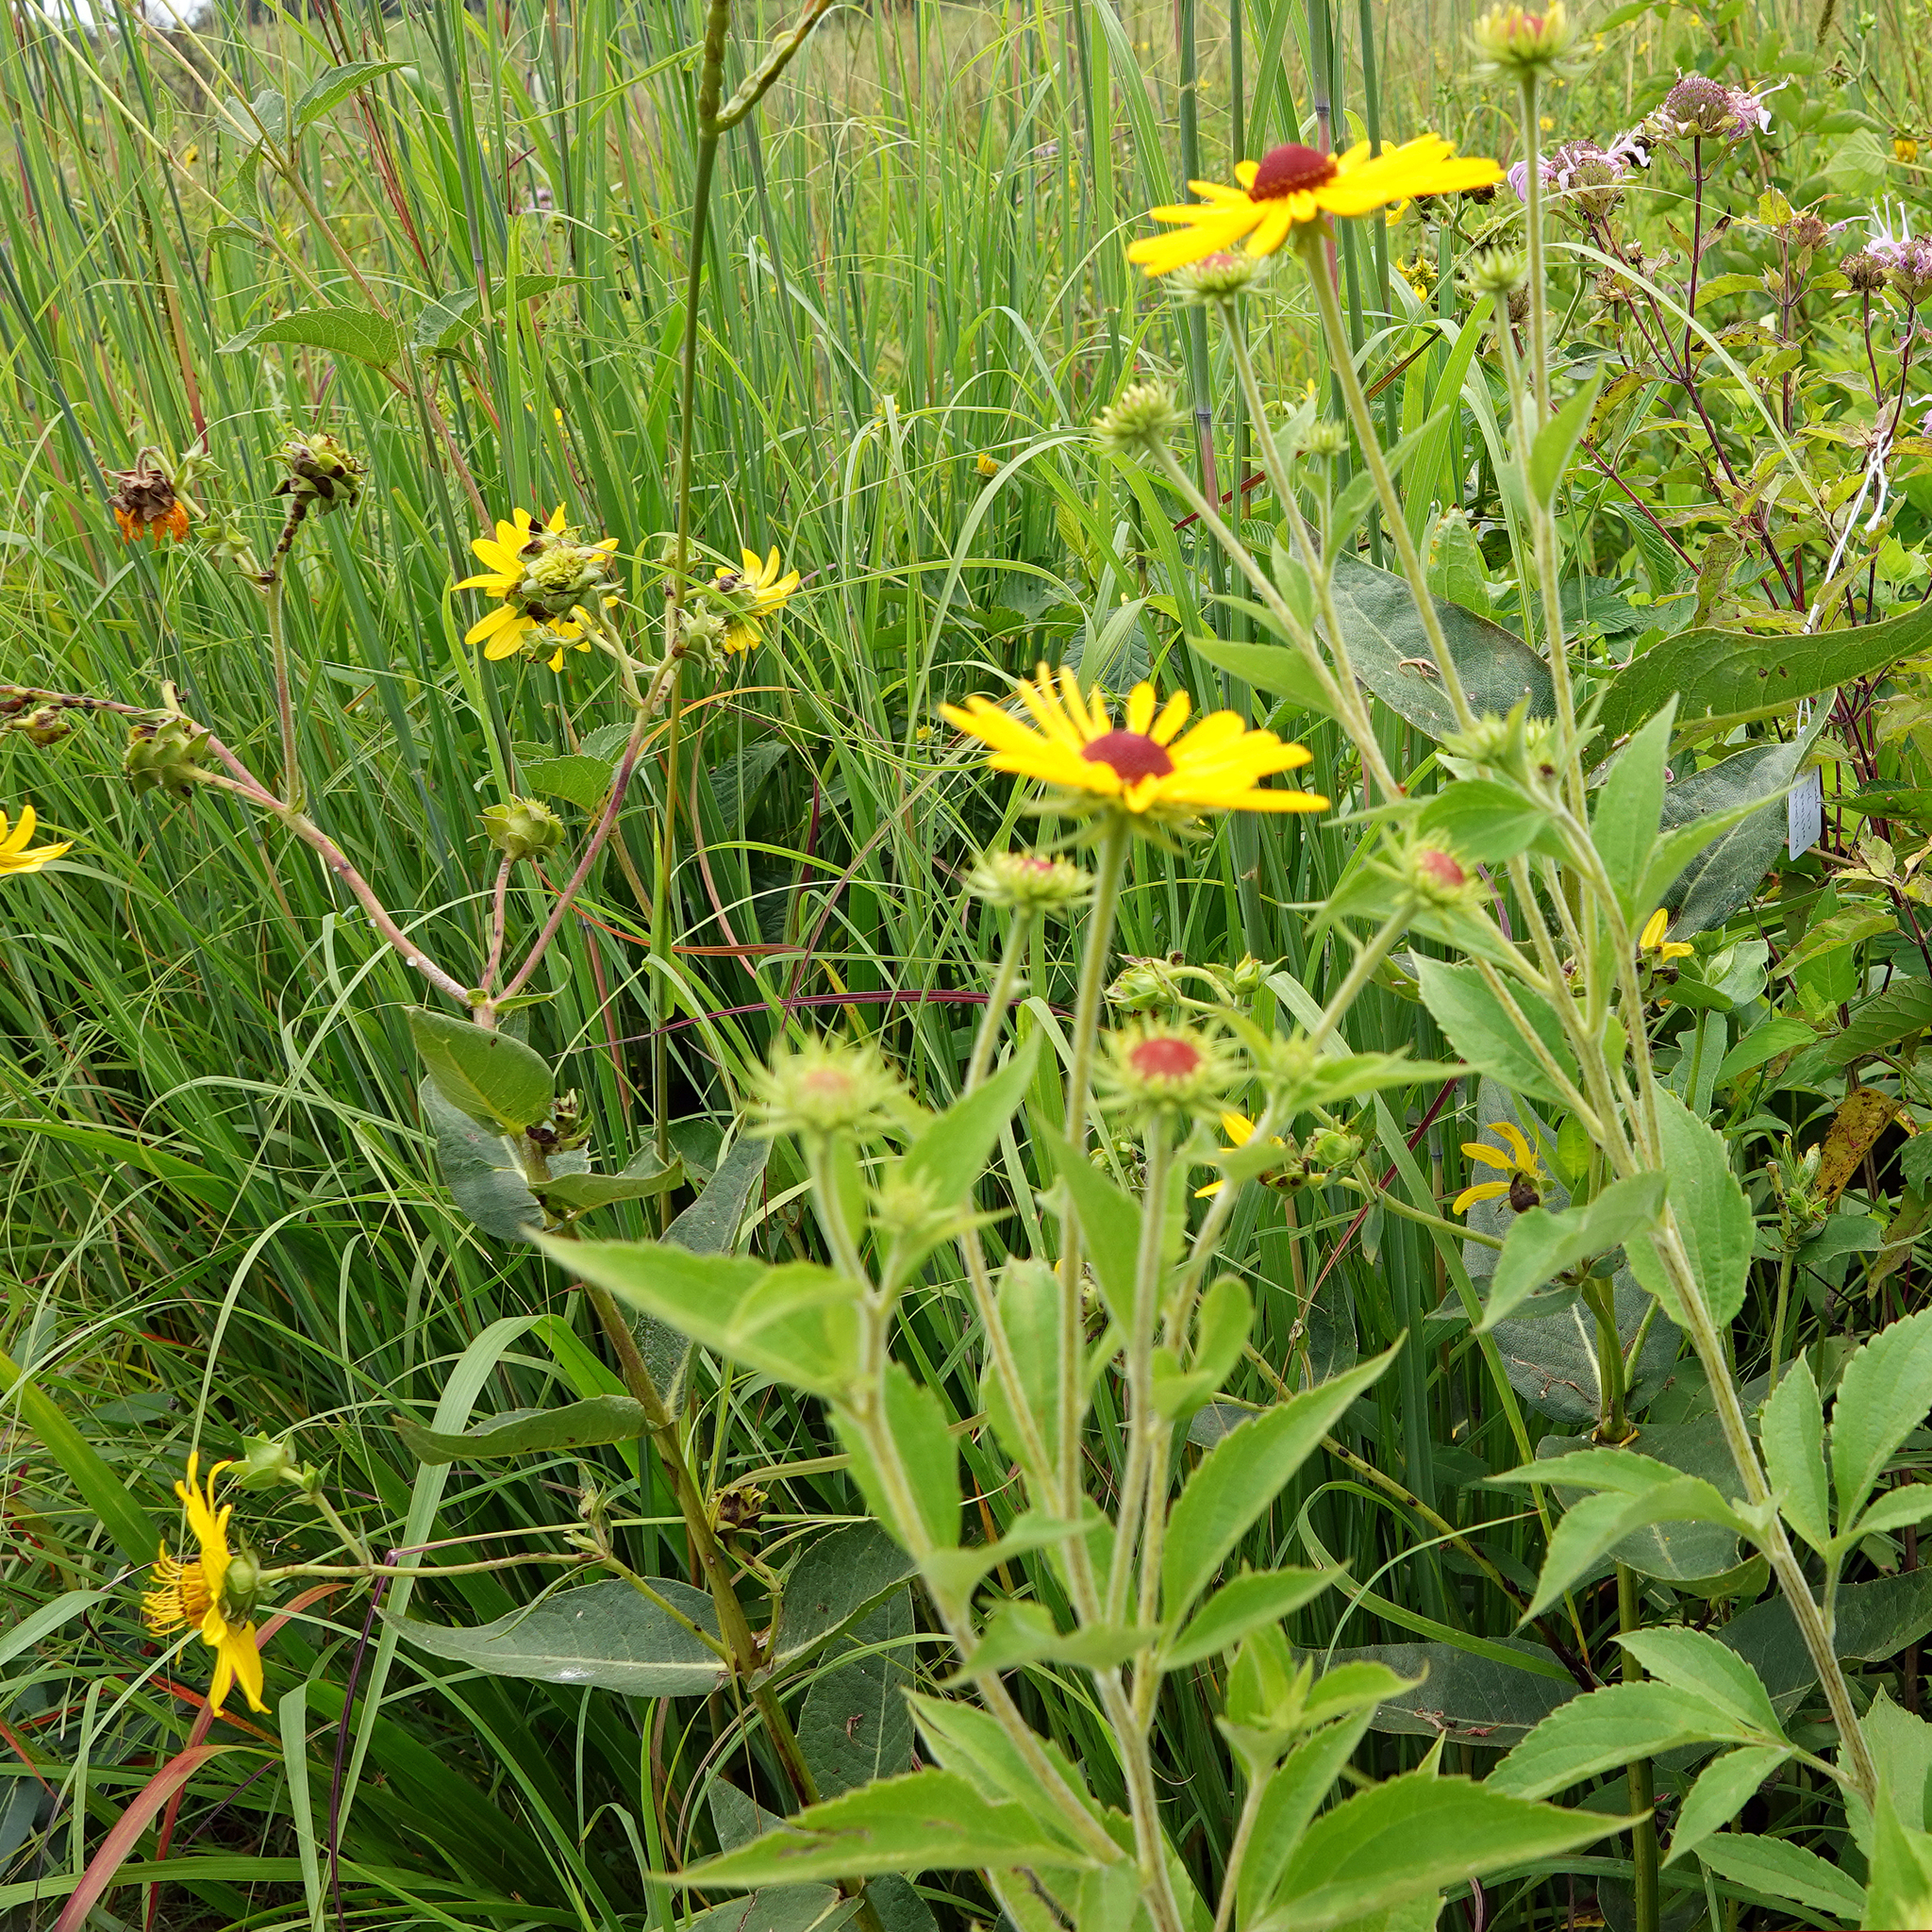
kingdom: Plantae
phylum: Tracheophyta
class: Magnoliopsida
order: Asterales
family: Asteraceae
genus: Rudbeckia
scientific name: Rudbeckia subtomentosa
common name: Sweet coneflower
